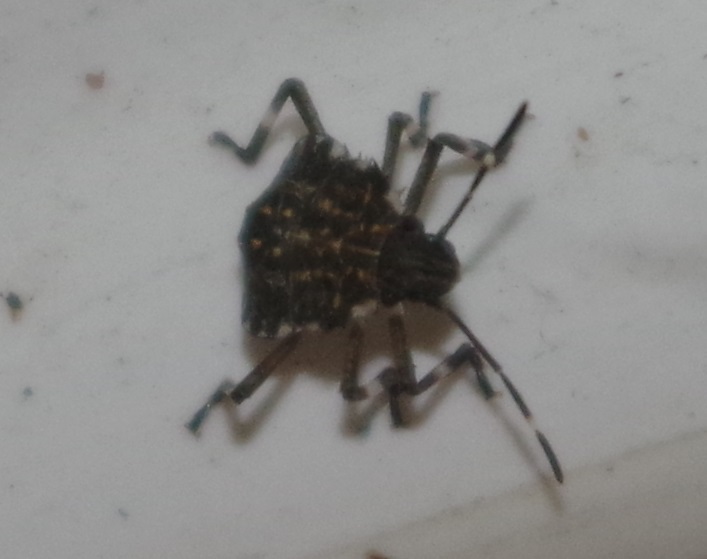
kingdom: Animalia
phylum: Arthropoda
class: Insecta
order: Hemiptera
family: Pentatomidae
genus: Halyomorpha
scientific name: Halyomorpha halys
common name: Brown marmorated stink bug
